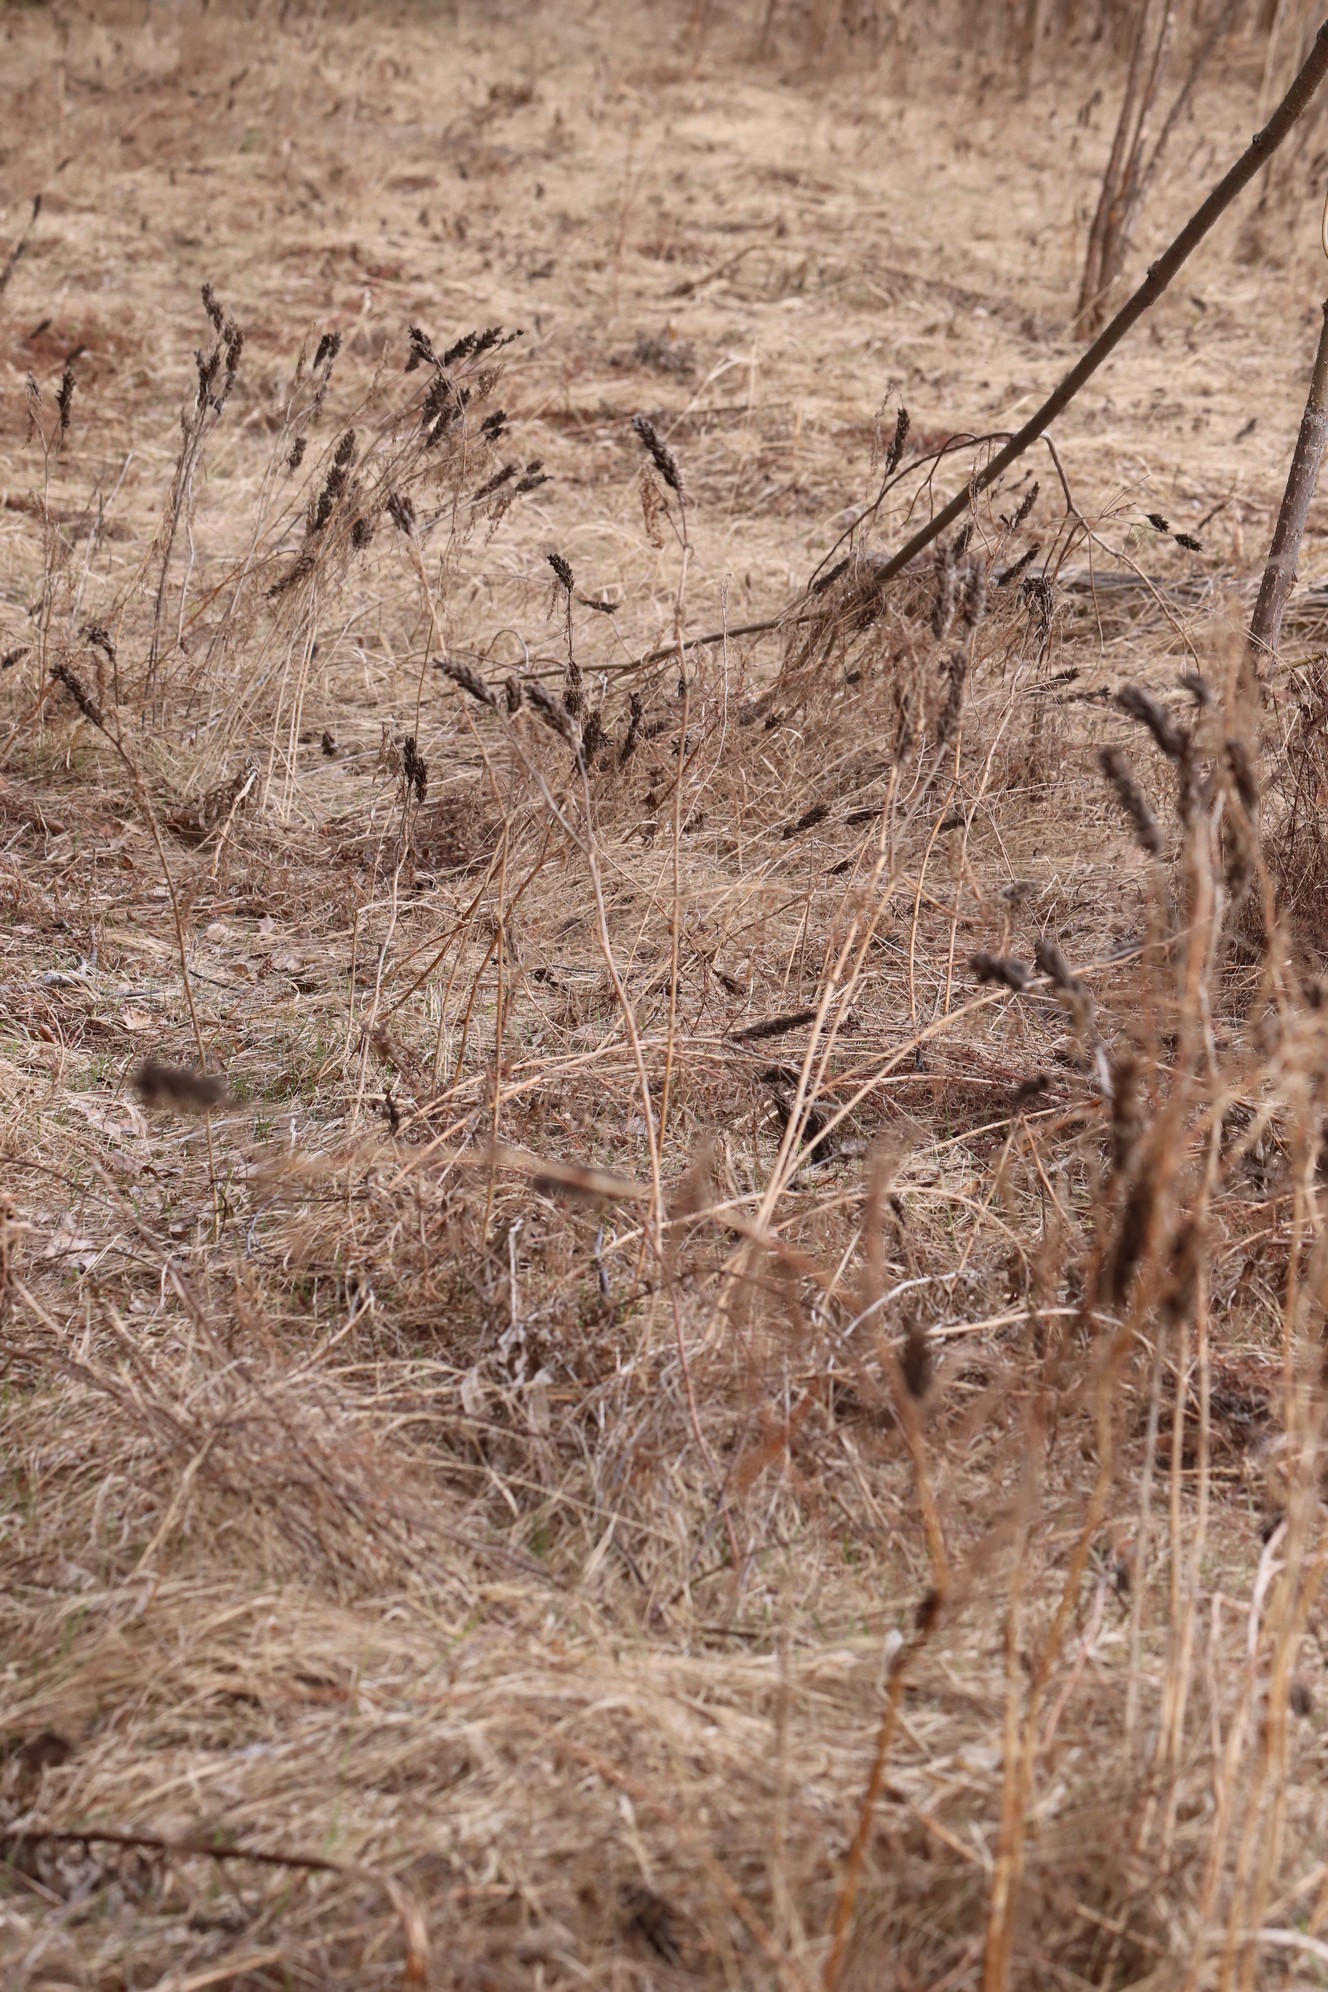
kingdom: Plantae
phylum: Tracheophyta
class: Magnoliopsida
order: Fabales
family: Fabaceae
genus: Astragalus
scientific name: Astragalus uliginosus
